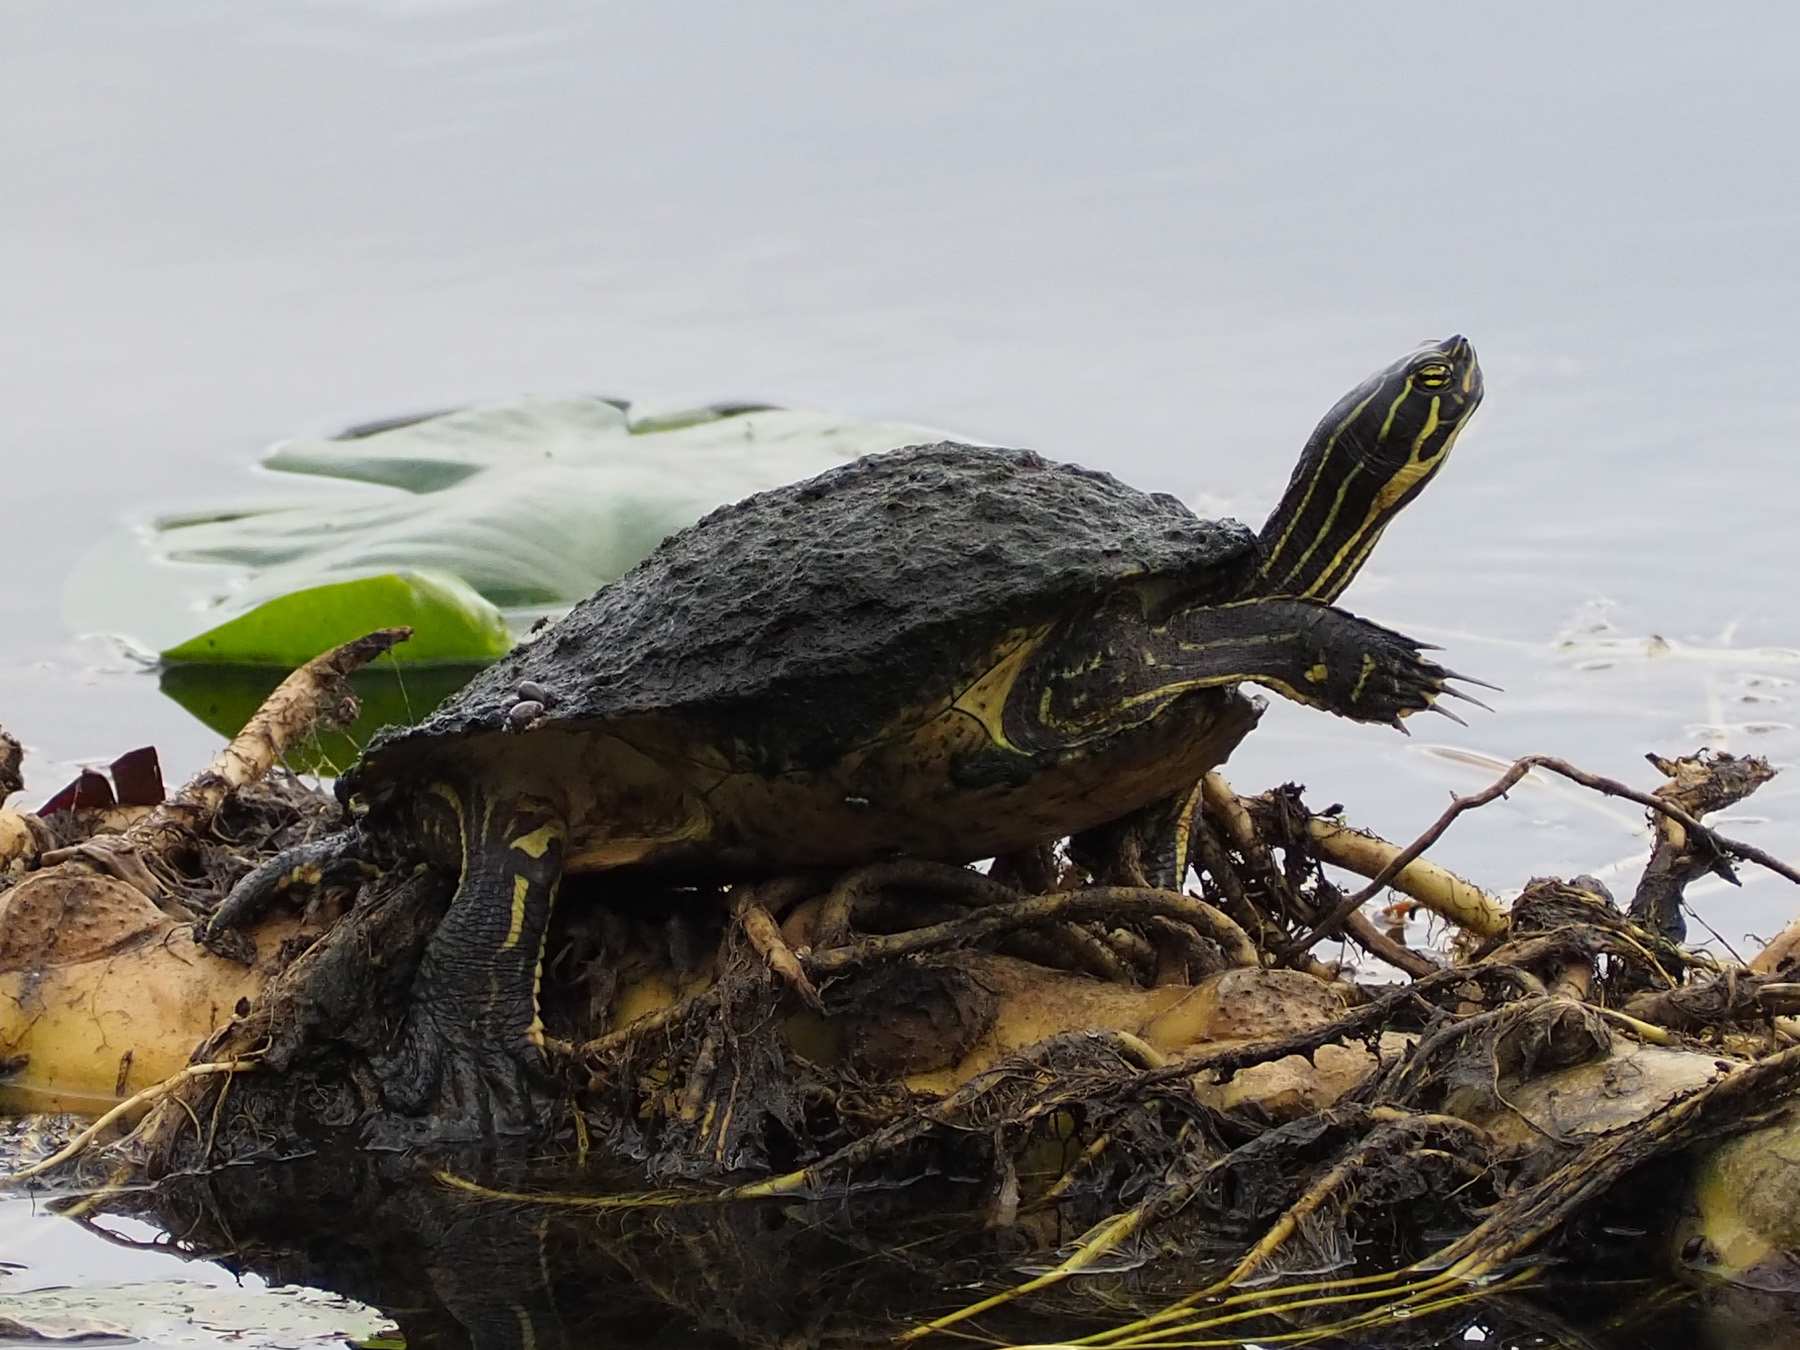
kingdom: Animalia
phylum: Chordata
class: Testudines
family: Emydidae
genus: Pseudemys
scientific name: Pseudemys peninsularis
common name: Peninsula cooter
